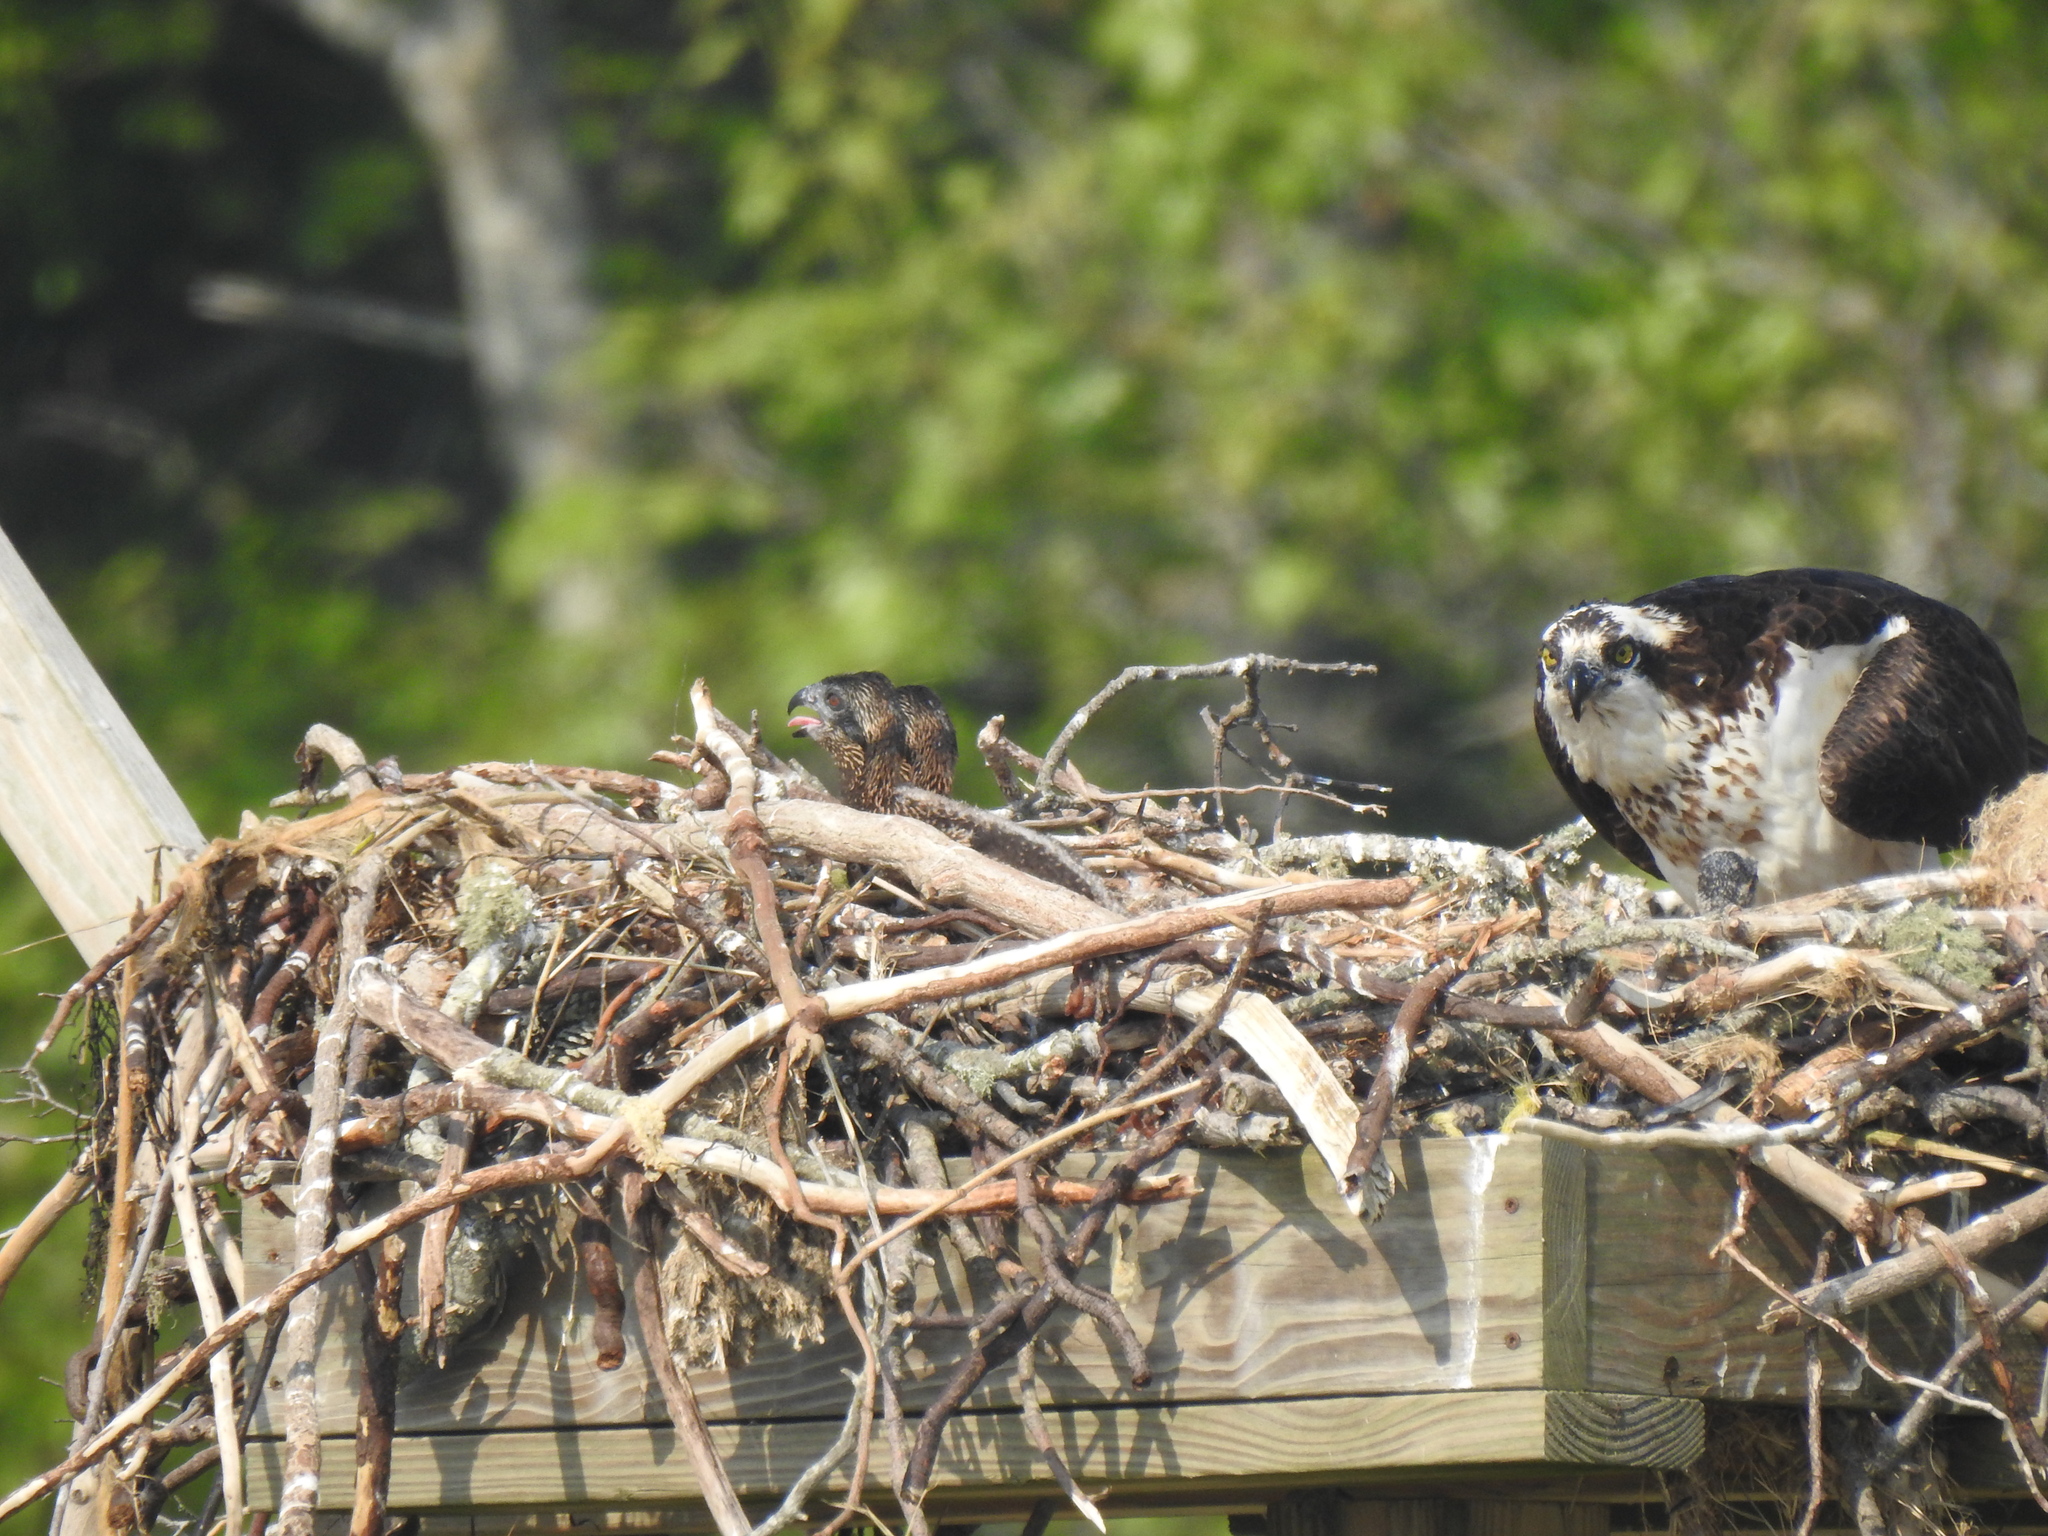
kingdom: Animalia
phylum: Chordata
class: Aves
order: Accipitriformes
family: Pandionidae
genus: Pandion
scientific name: Pandion haliaetus
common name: Osprey
